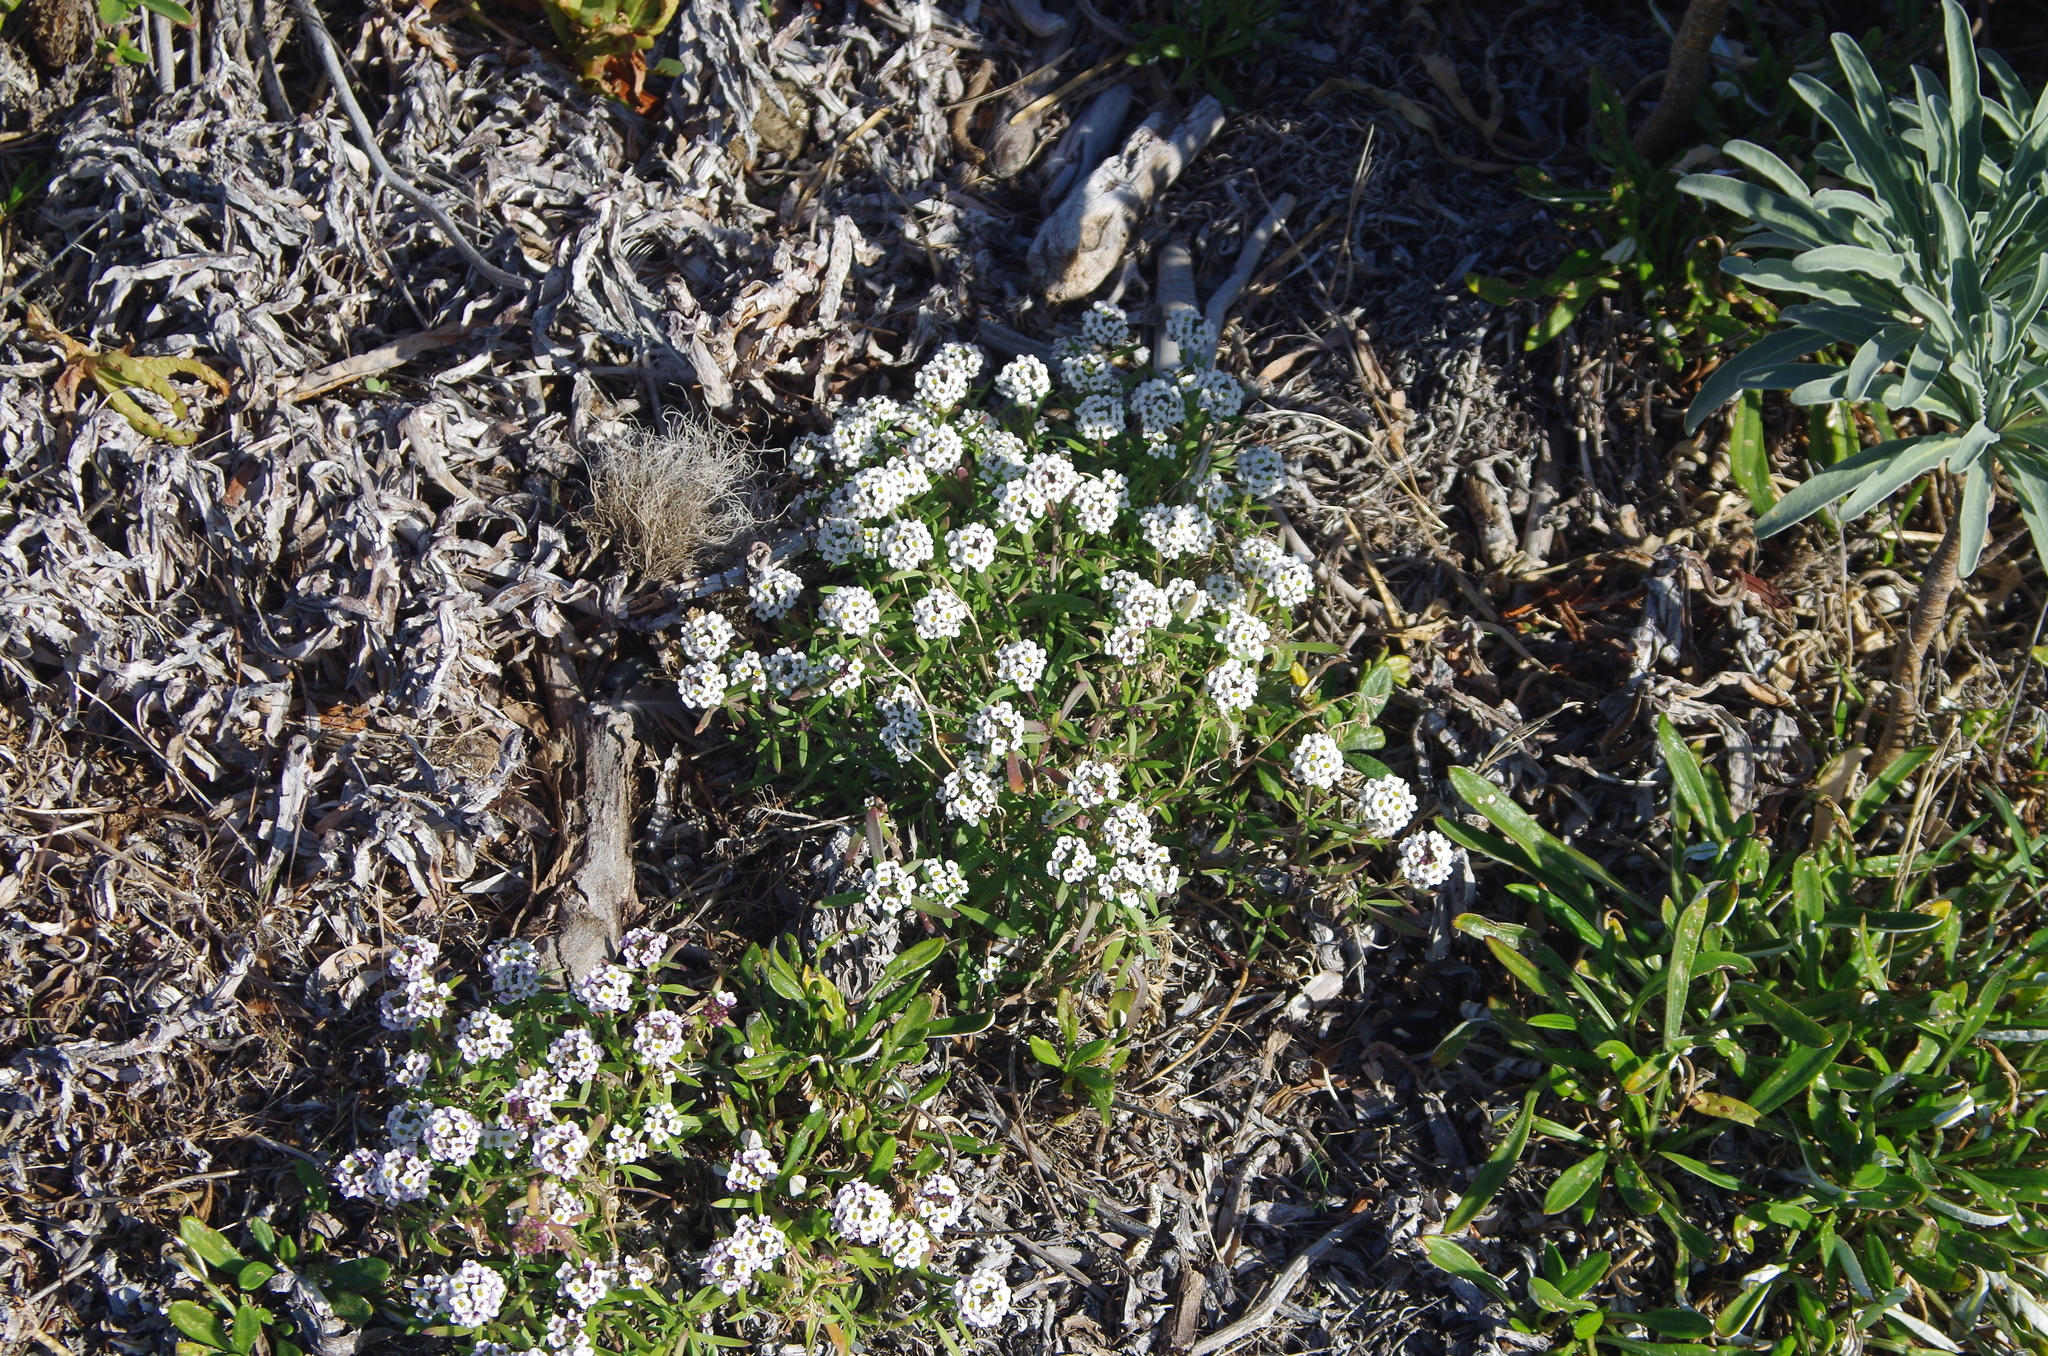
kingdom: Plantae
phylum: Tracheophyta
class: Magnoliopsida
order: Brassicales
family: Brassicaceae
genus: Lobularia
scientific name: Lobularia maritima
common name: Sweet alison
